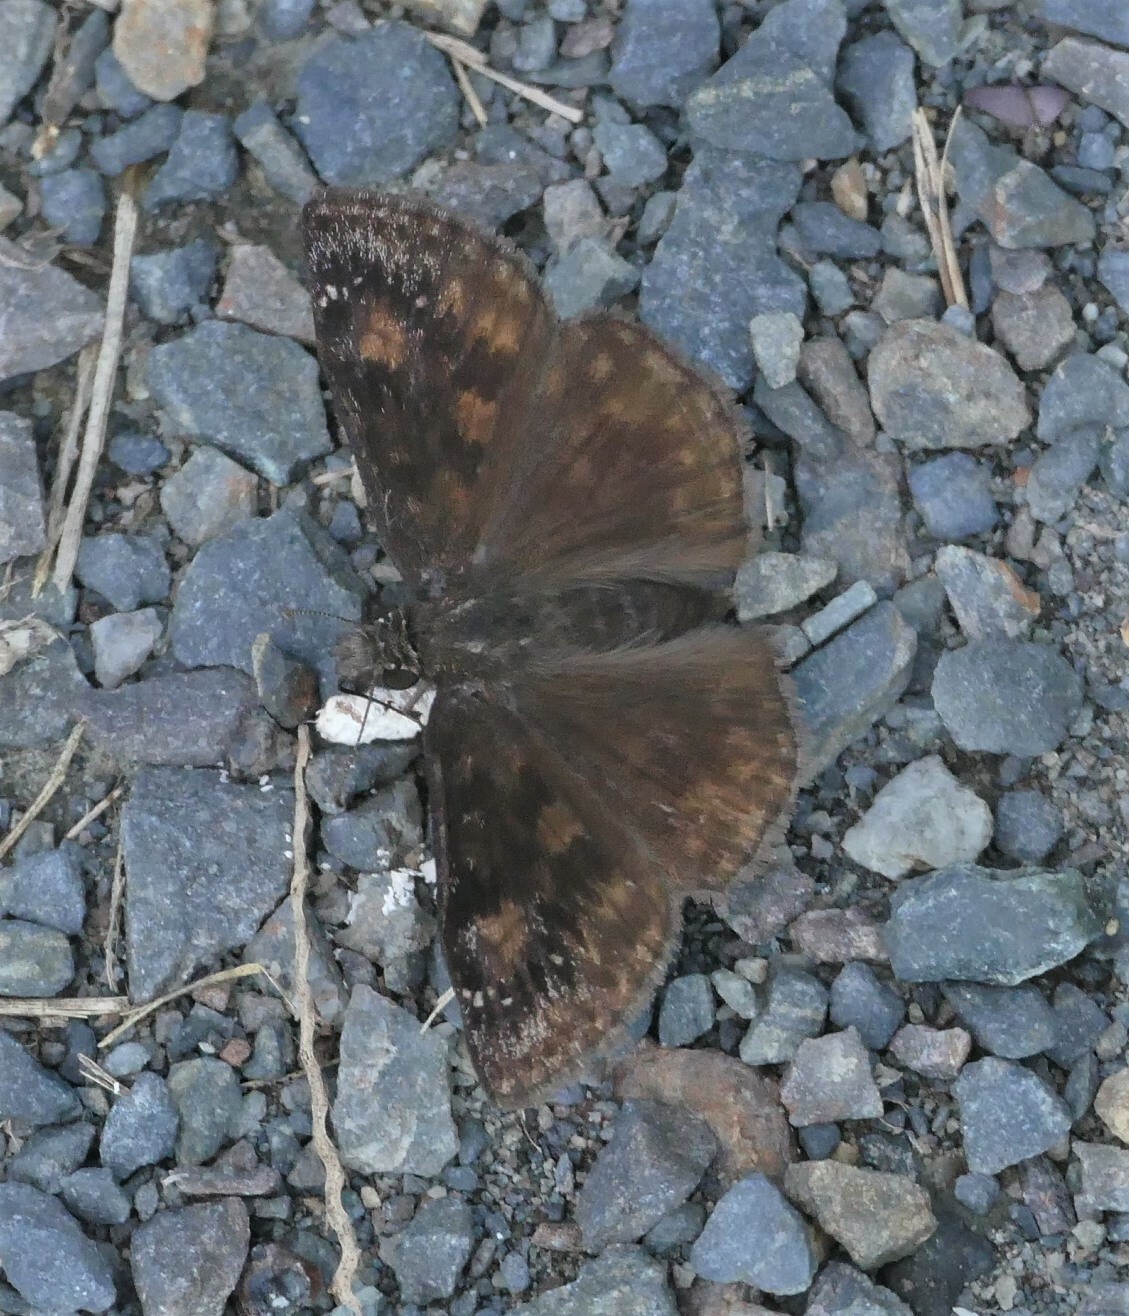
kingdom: Animalia
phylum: Arthropoda
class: Insecta
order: Lepidoptera
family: Hesperiidae
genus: Erynnis
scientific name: Erynnis baptisiae
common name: Wild indigo duskywing
